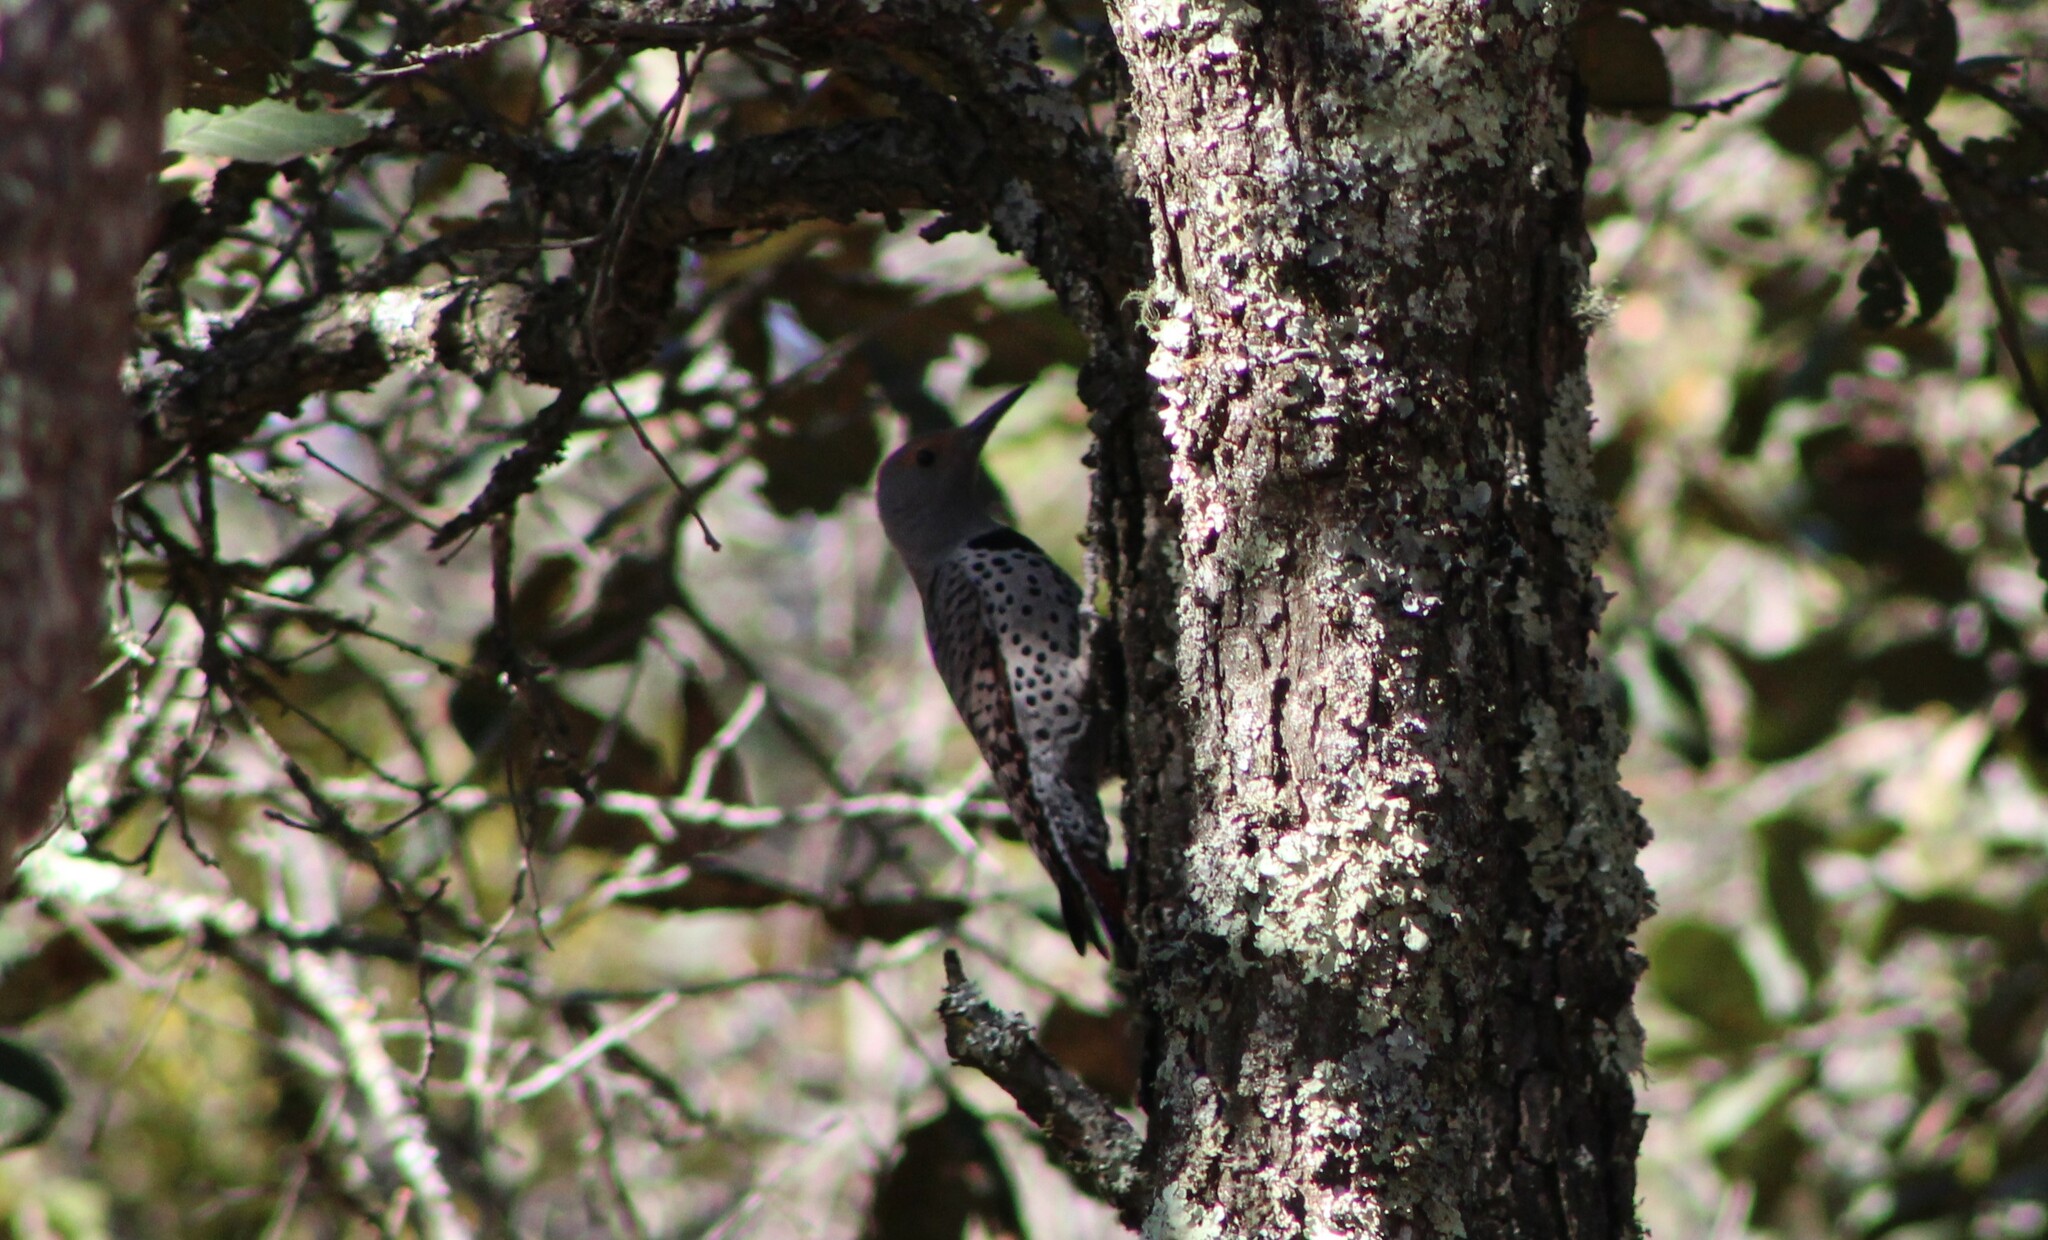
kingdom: Animalia
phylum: Chordata
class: Aves
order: Piciformes
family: Picidae
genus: Colaptes
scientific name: Colaptes auratus
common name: Northern flicker
